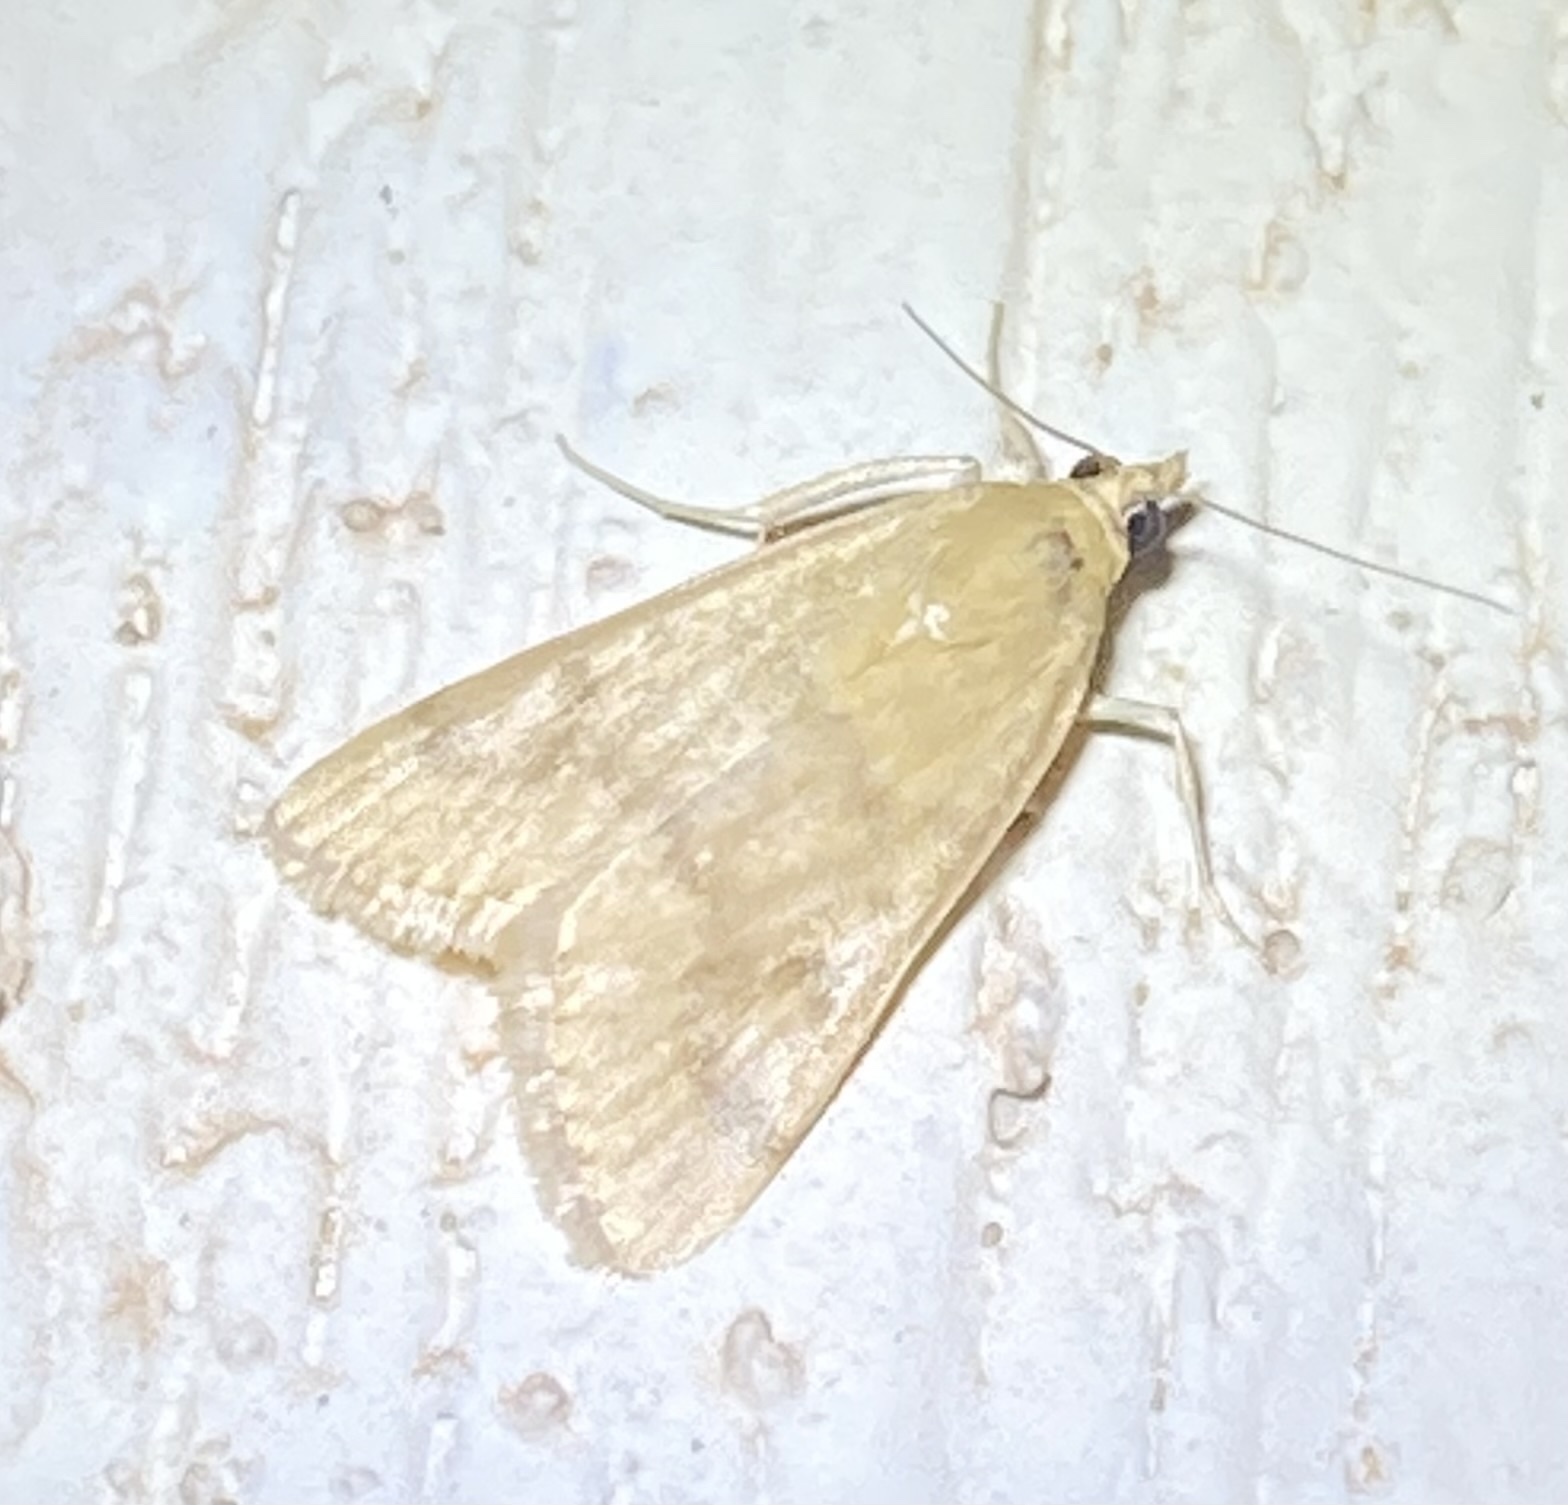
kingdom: Animalia
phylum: Arthropoda
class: Insecta
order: Lepidoptera
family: Crambidae
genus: Achyra
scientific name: Achyra rantalis
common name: Garden webworm
